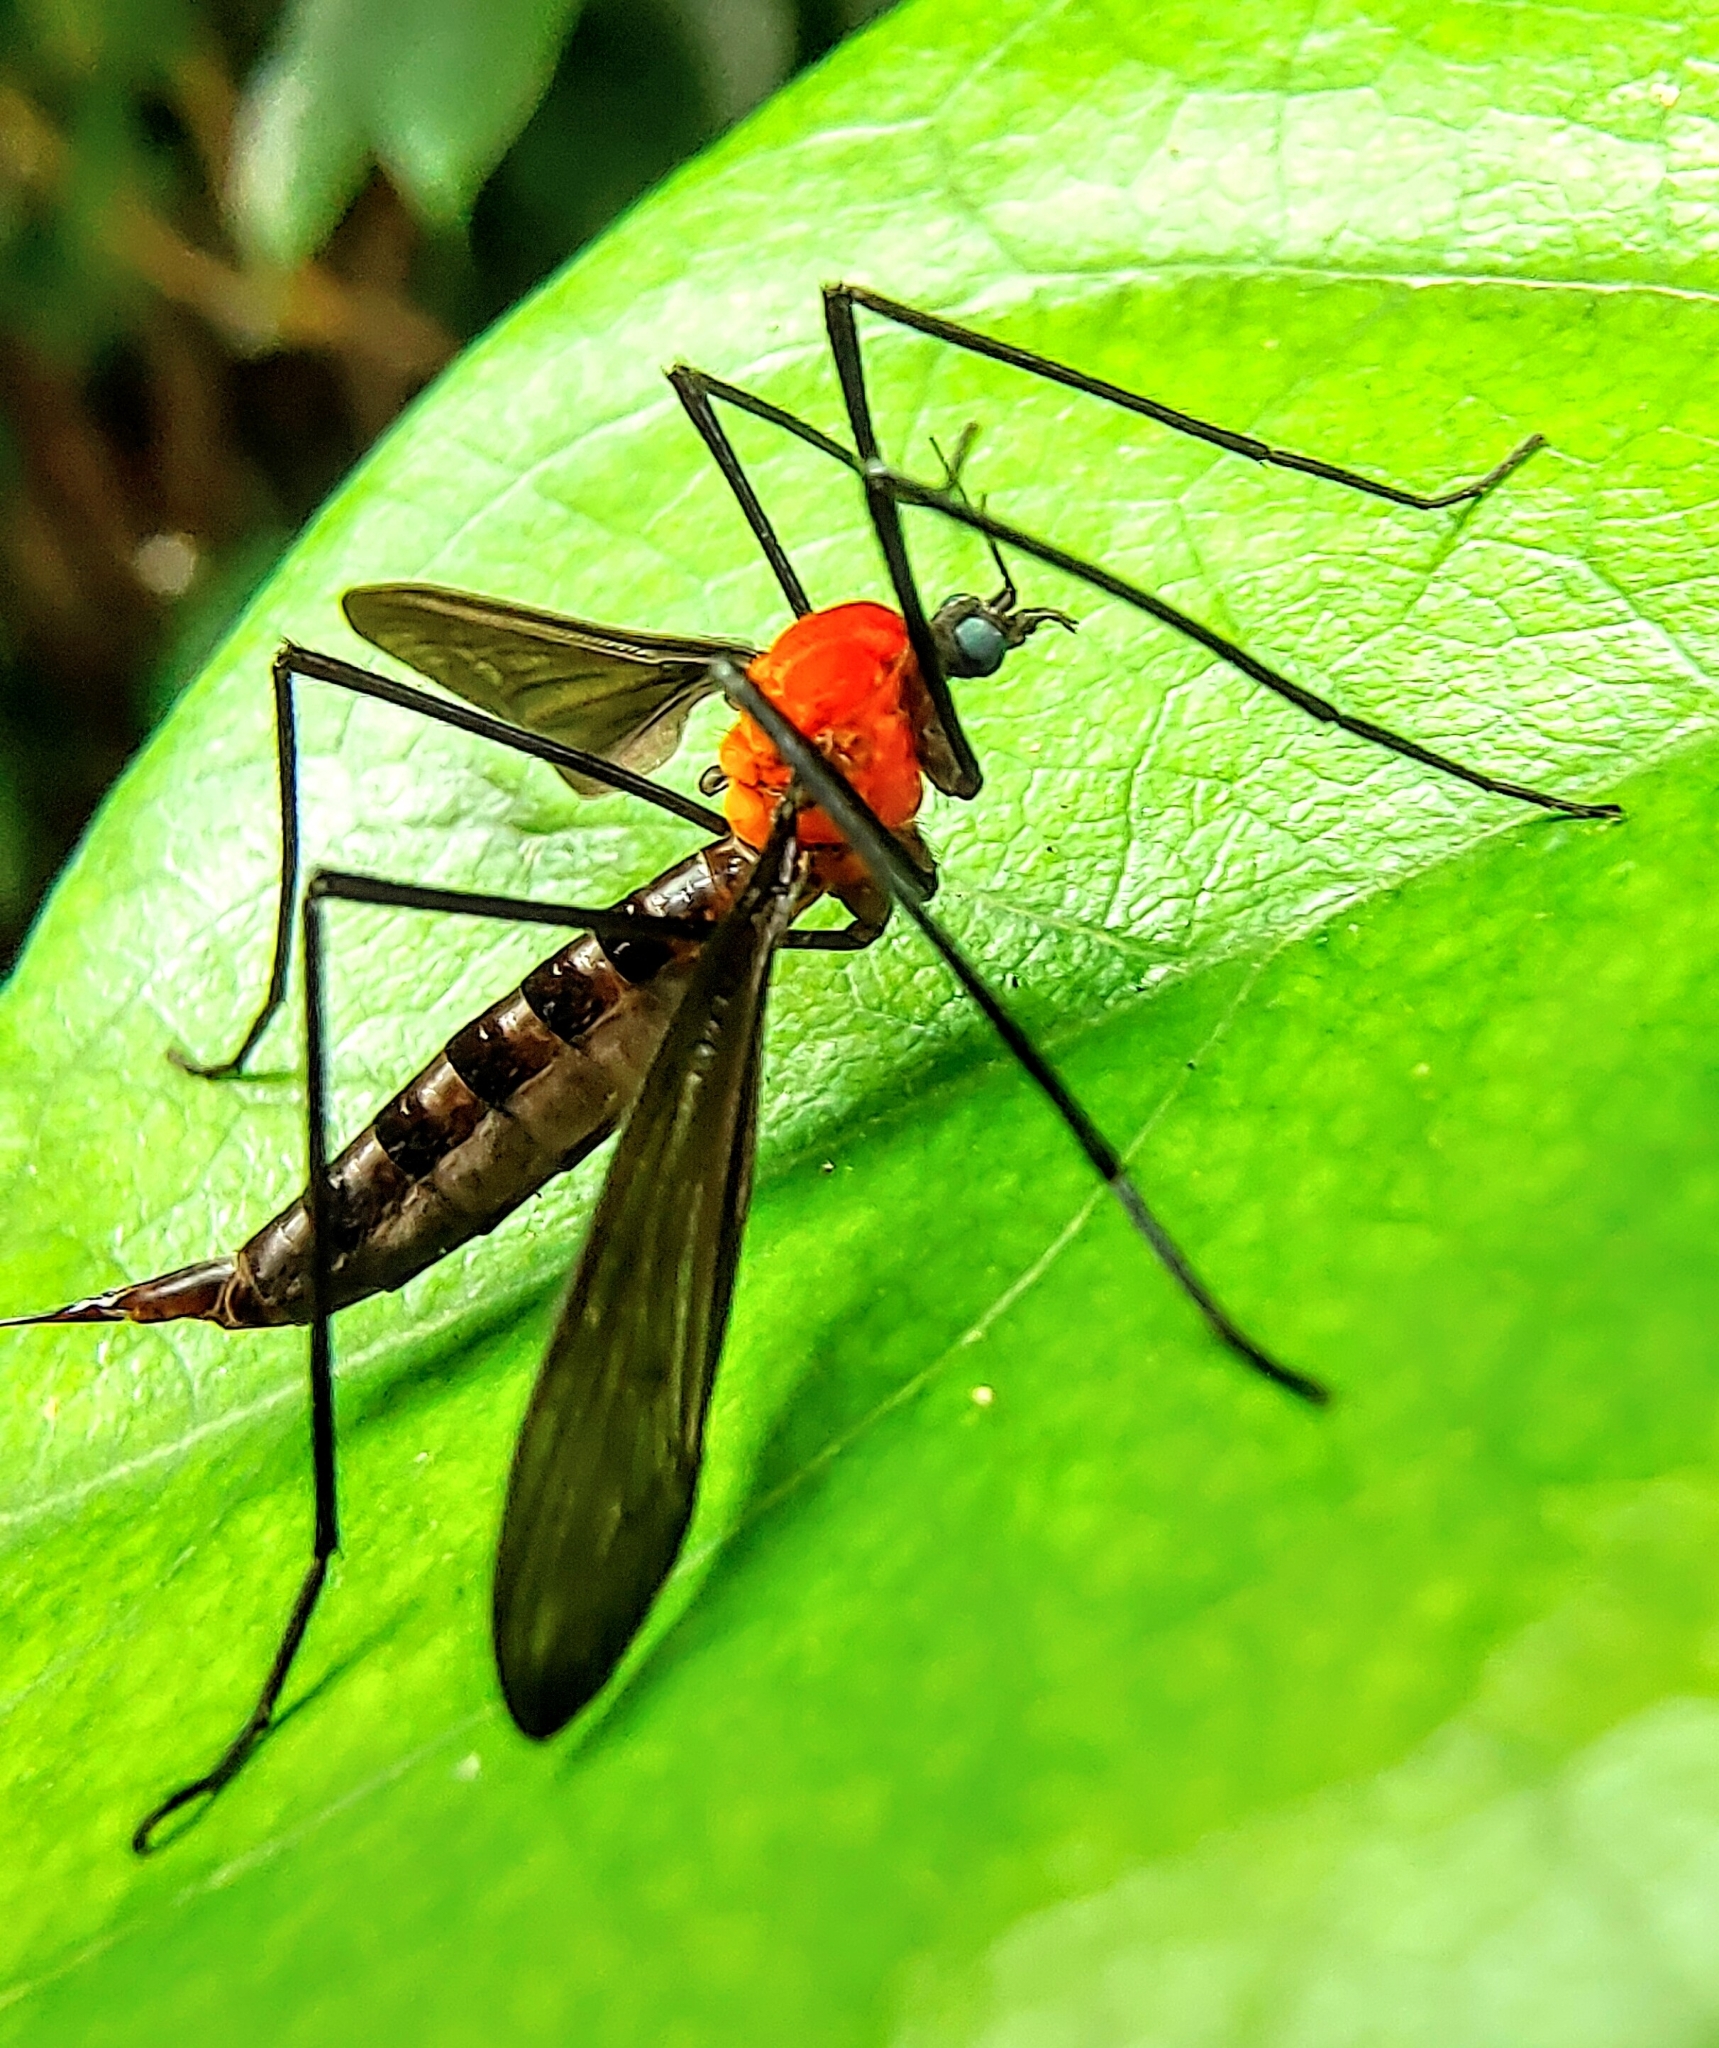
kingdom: Animalia
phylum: Arthropoda
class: Insecta
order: Diptera
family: Limoniidae
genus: Hexatoma
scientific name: Hexatoma plecioides
